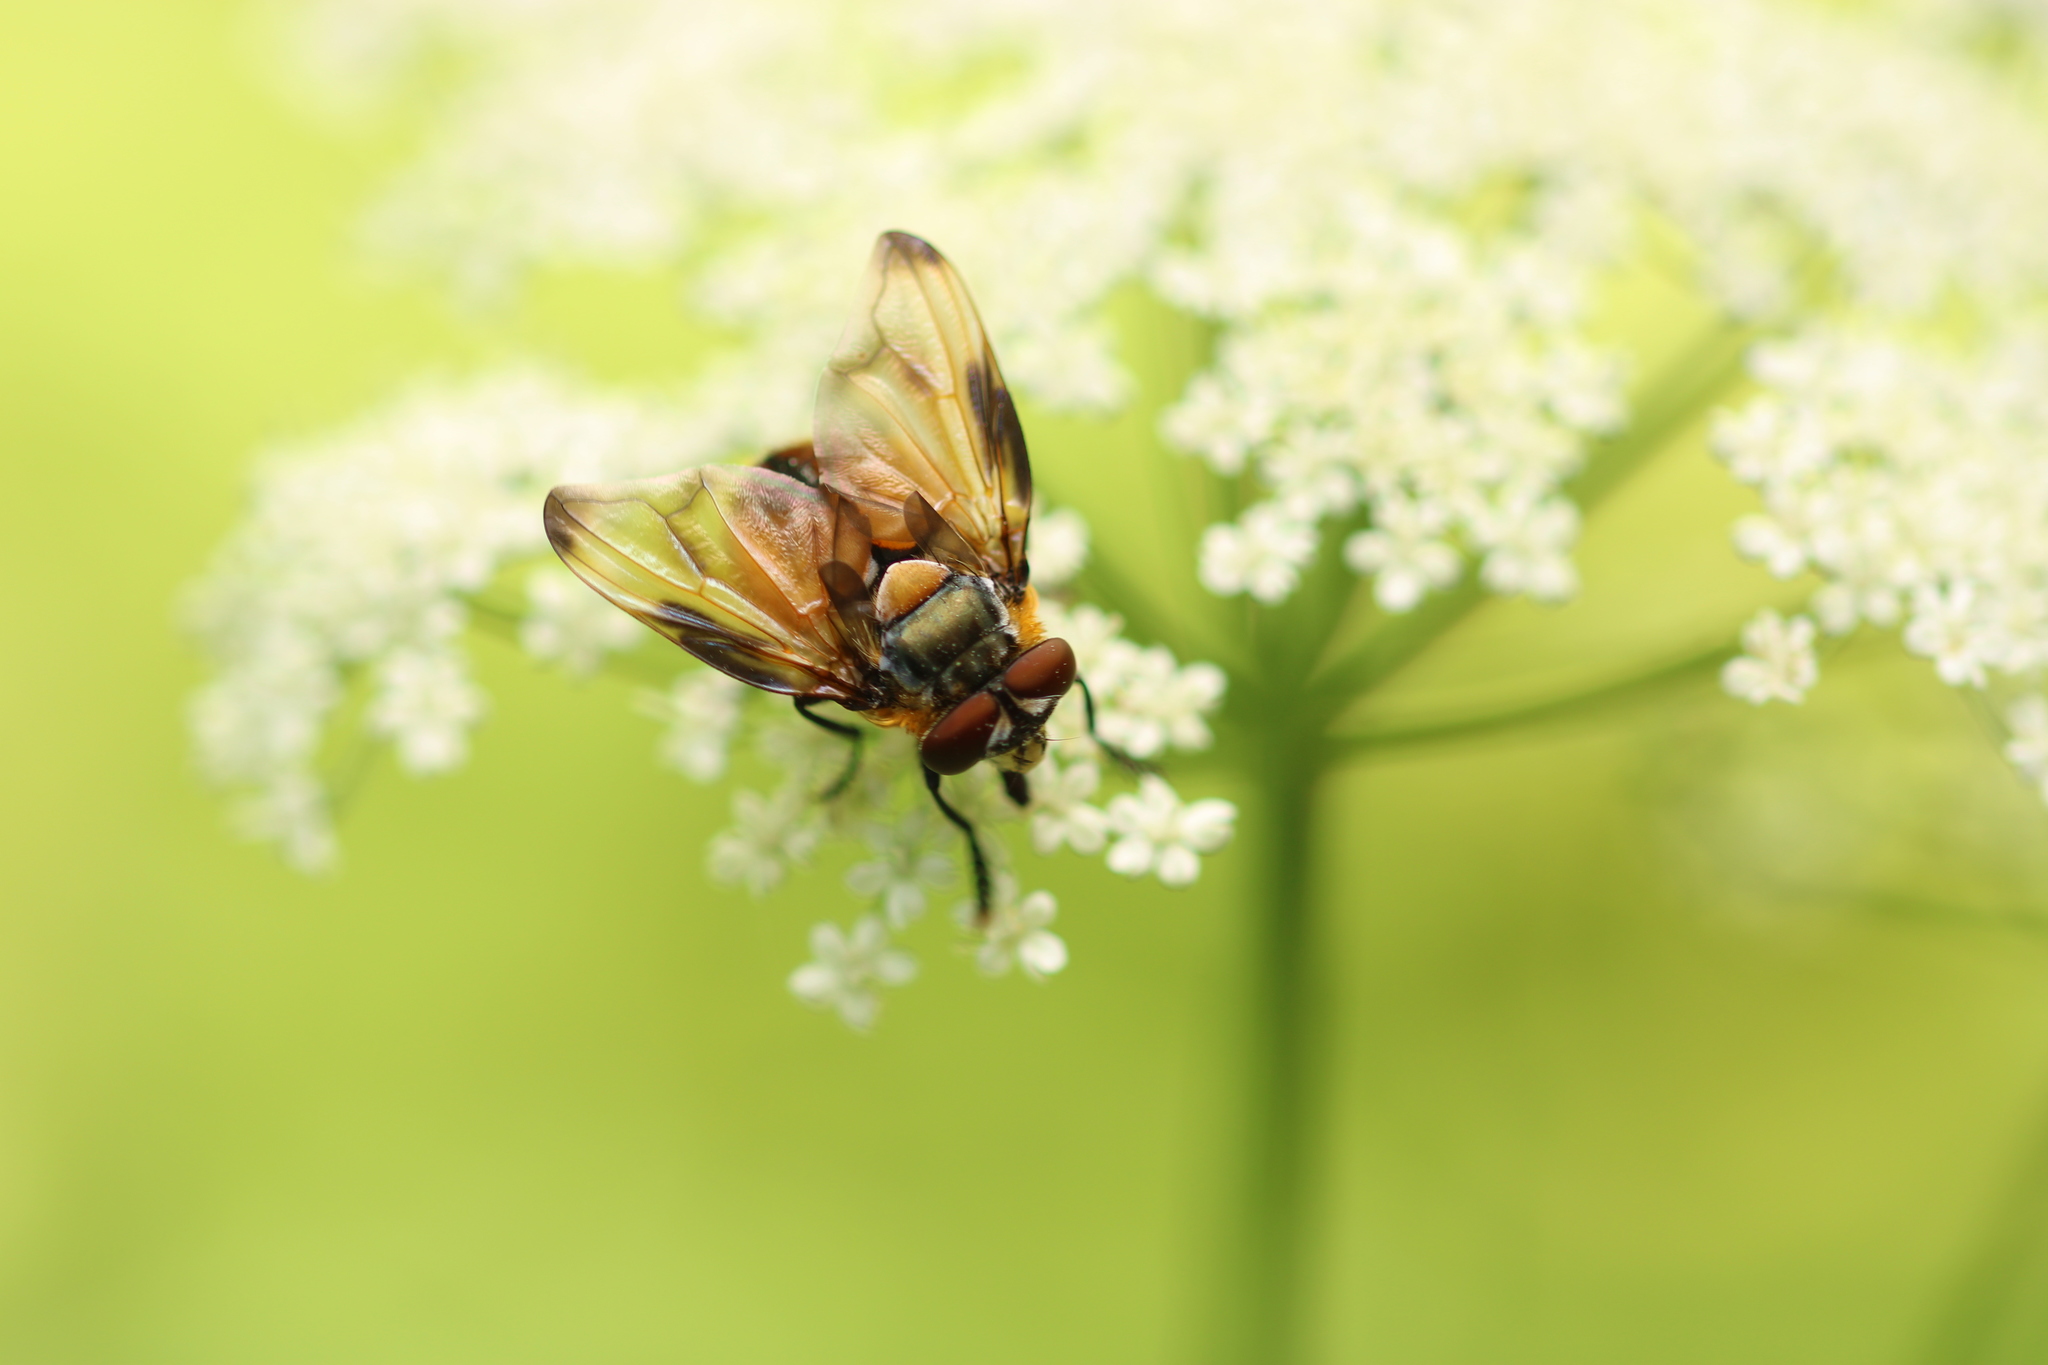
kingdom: Animalia
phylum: Arthropoda
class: Insecta
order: Diptera
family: Tachinidae
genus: Phasia
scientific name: Phasia hemiptera
